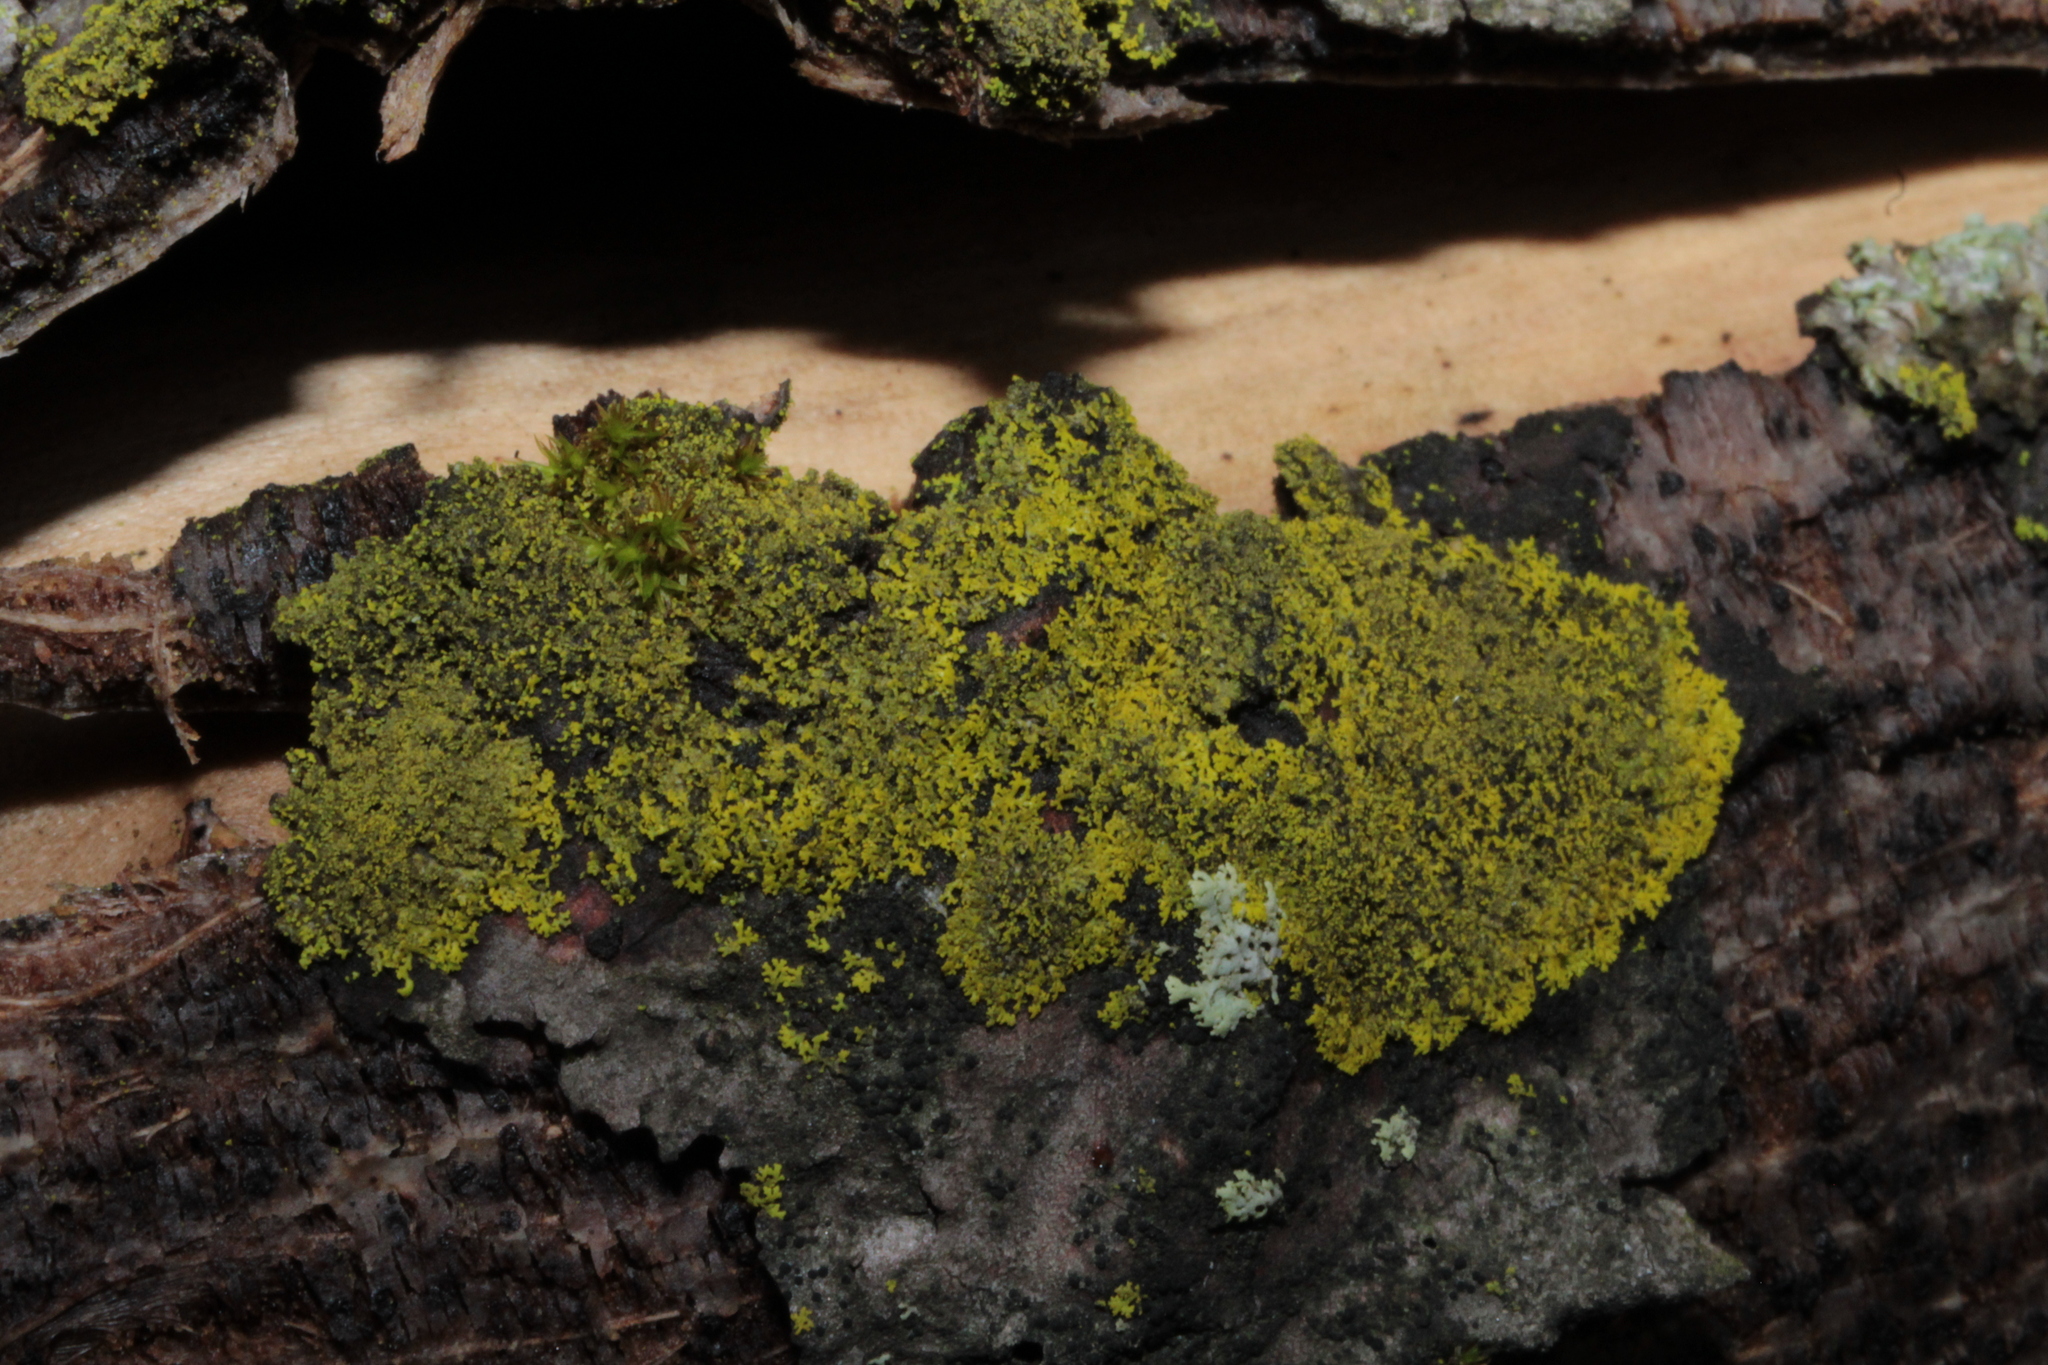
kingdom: Fungi
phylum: Ascomycota
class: Candelariomycetes
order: Candelariales
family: Candelariaceae
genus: Candelaria
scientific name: Candelaria concolor
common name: Candleflame lichen
